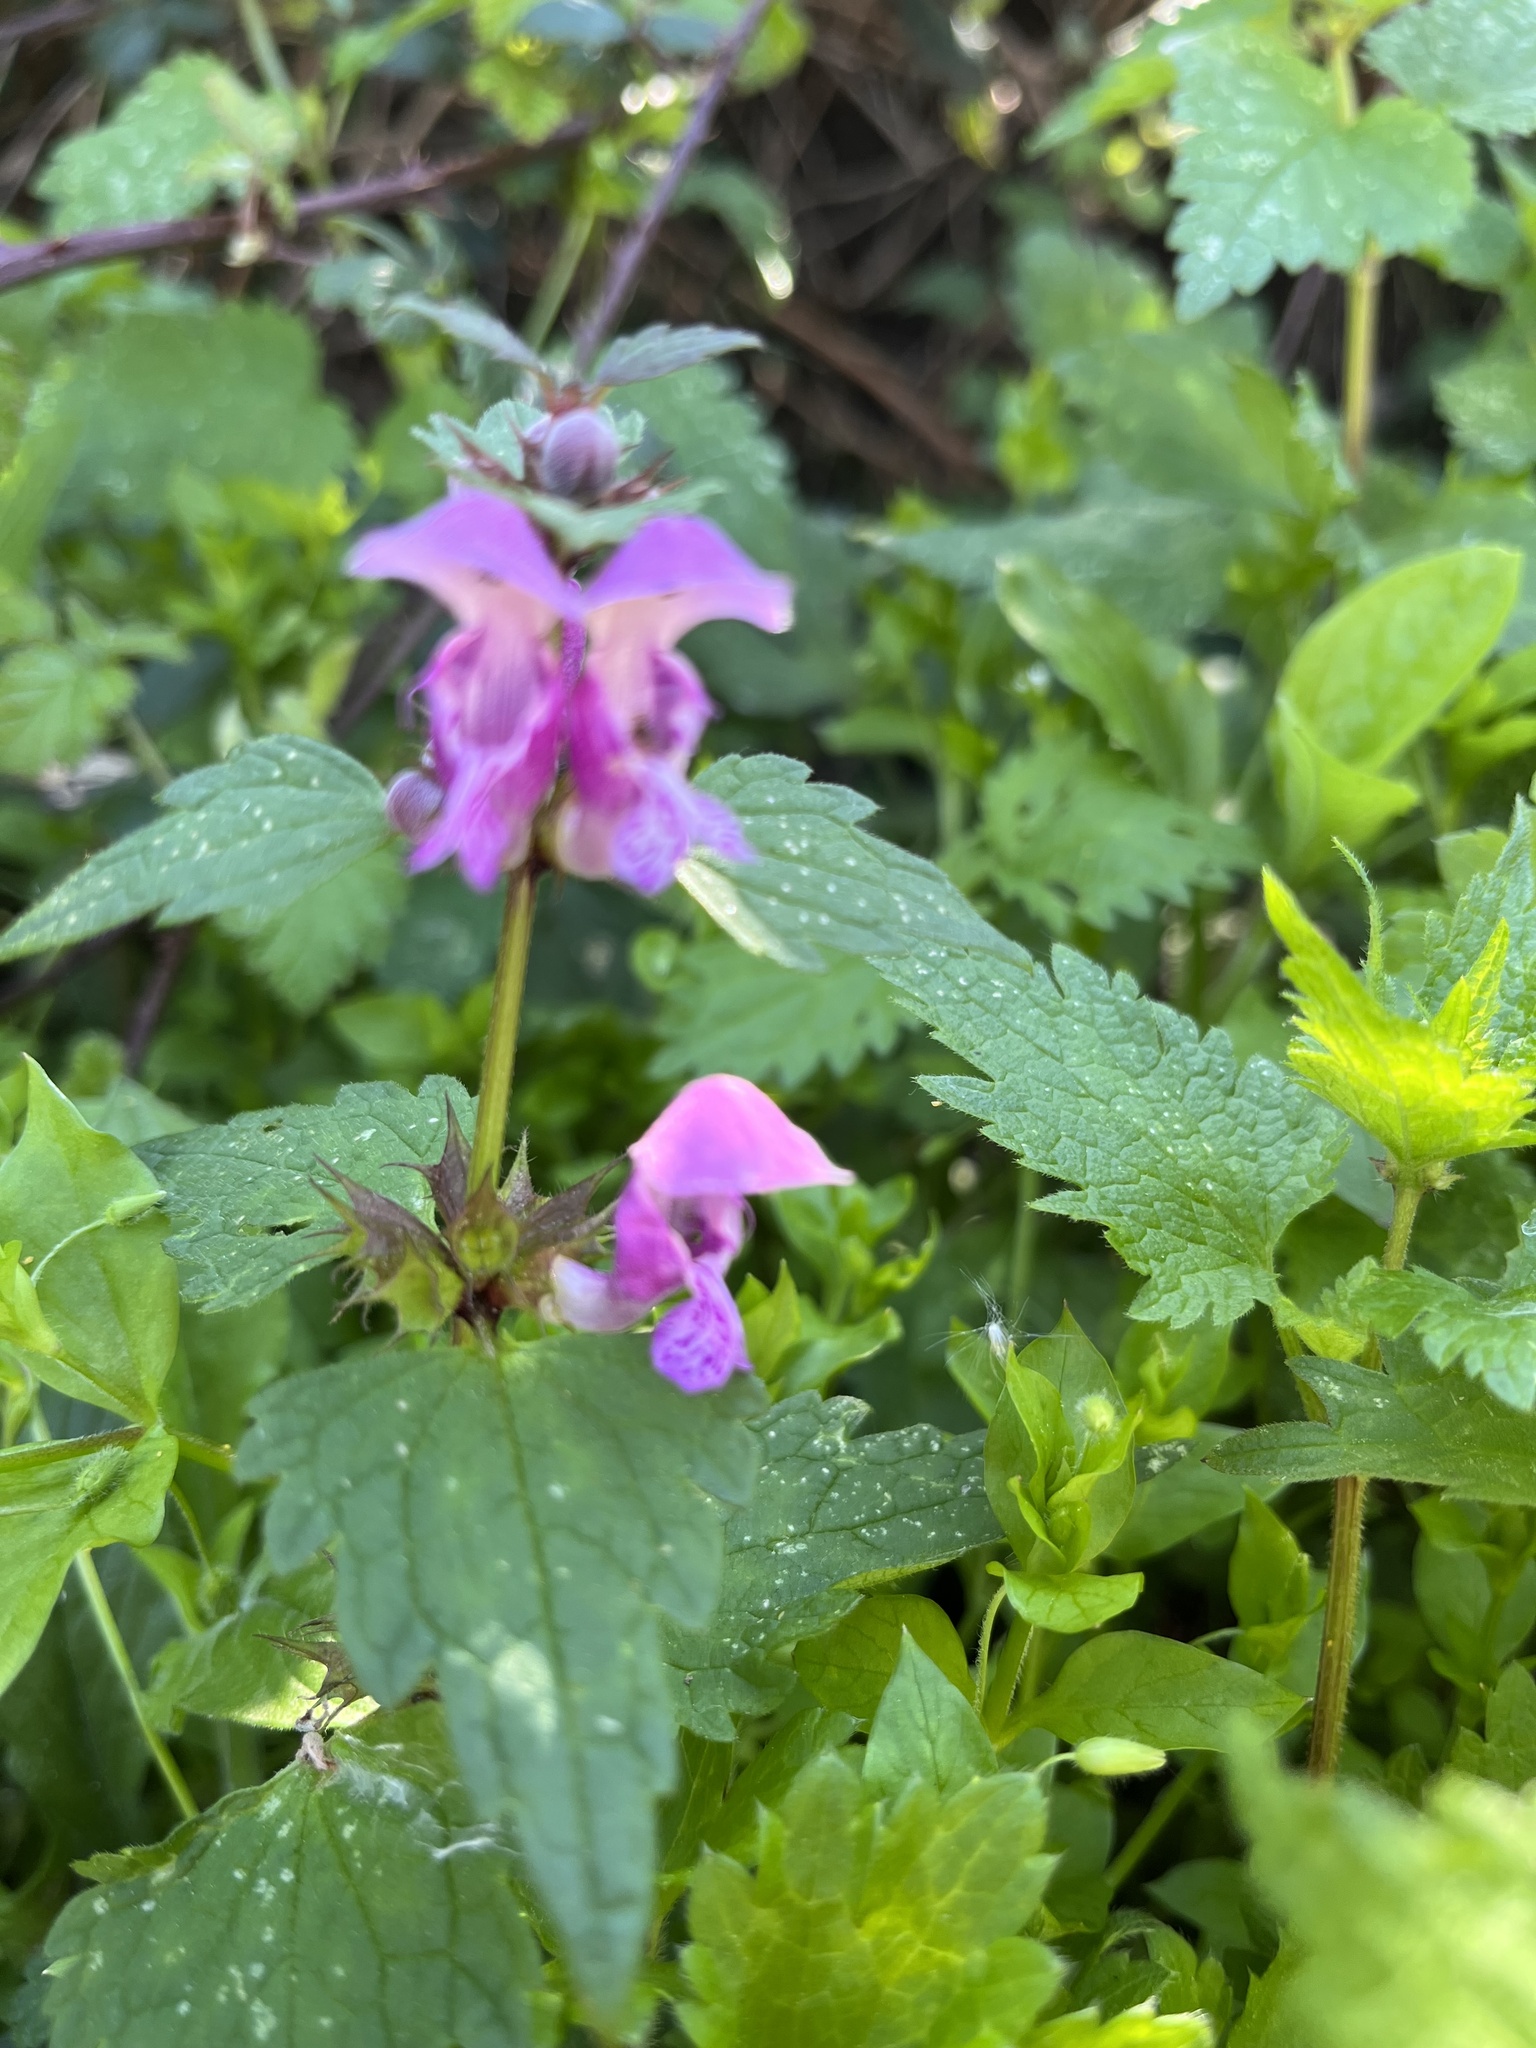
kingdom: Plantae
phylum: Tracheophyta
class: Magnoliopsida
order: Lamiales
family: Lamiaceae
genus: Lamium
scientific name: Lamium maculatum
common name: Spotted dead-nettle
